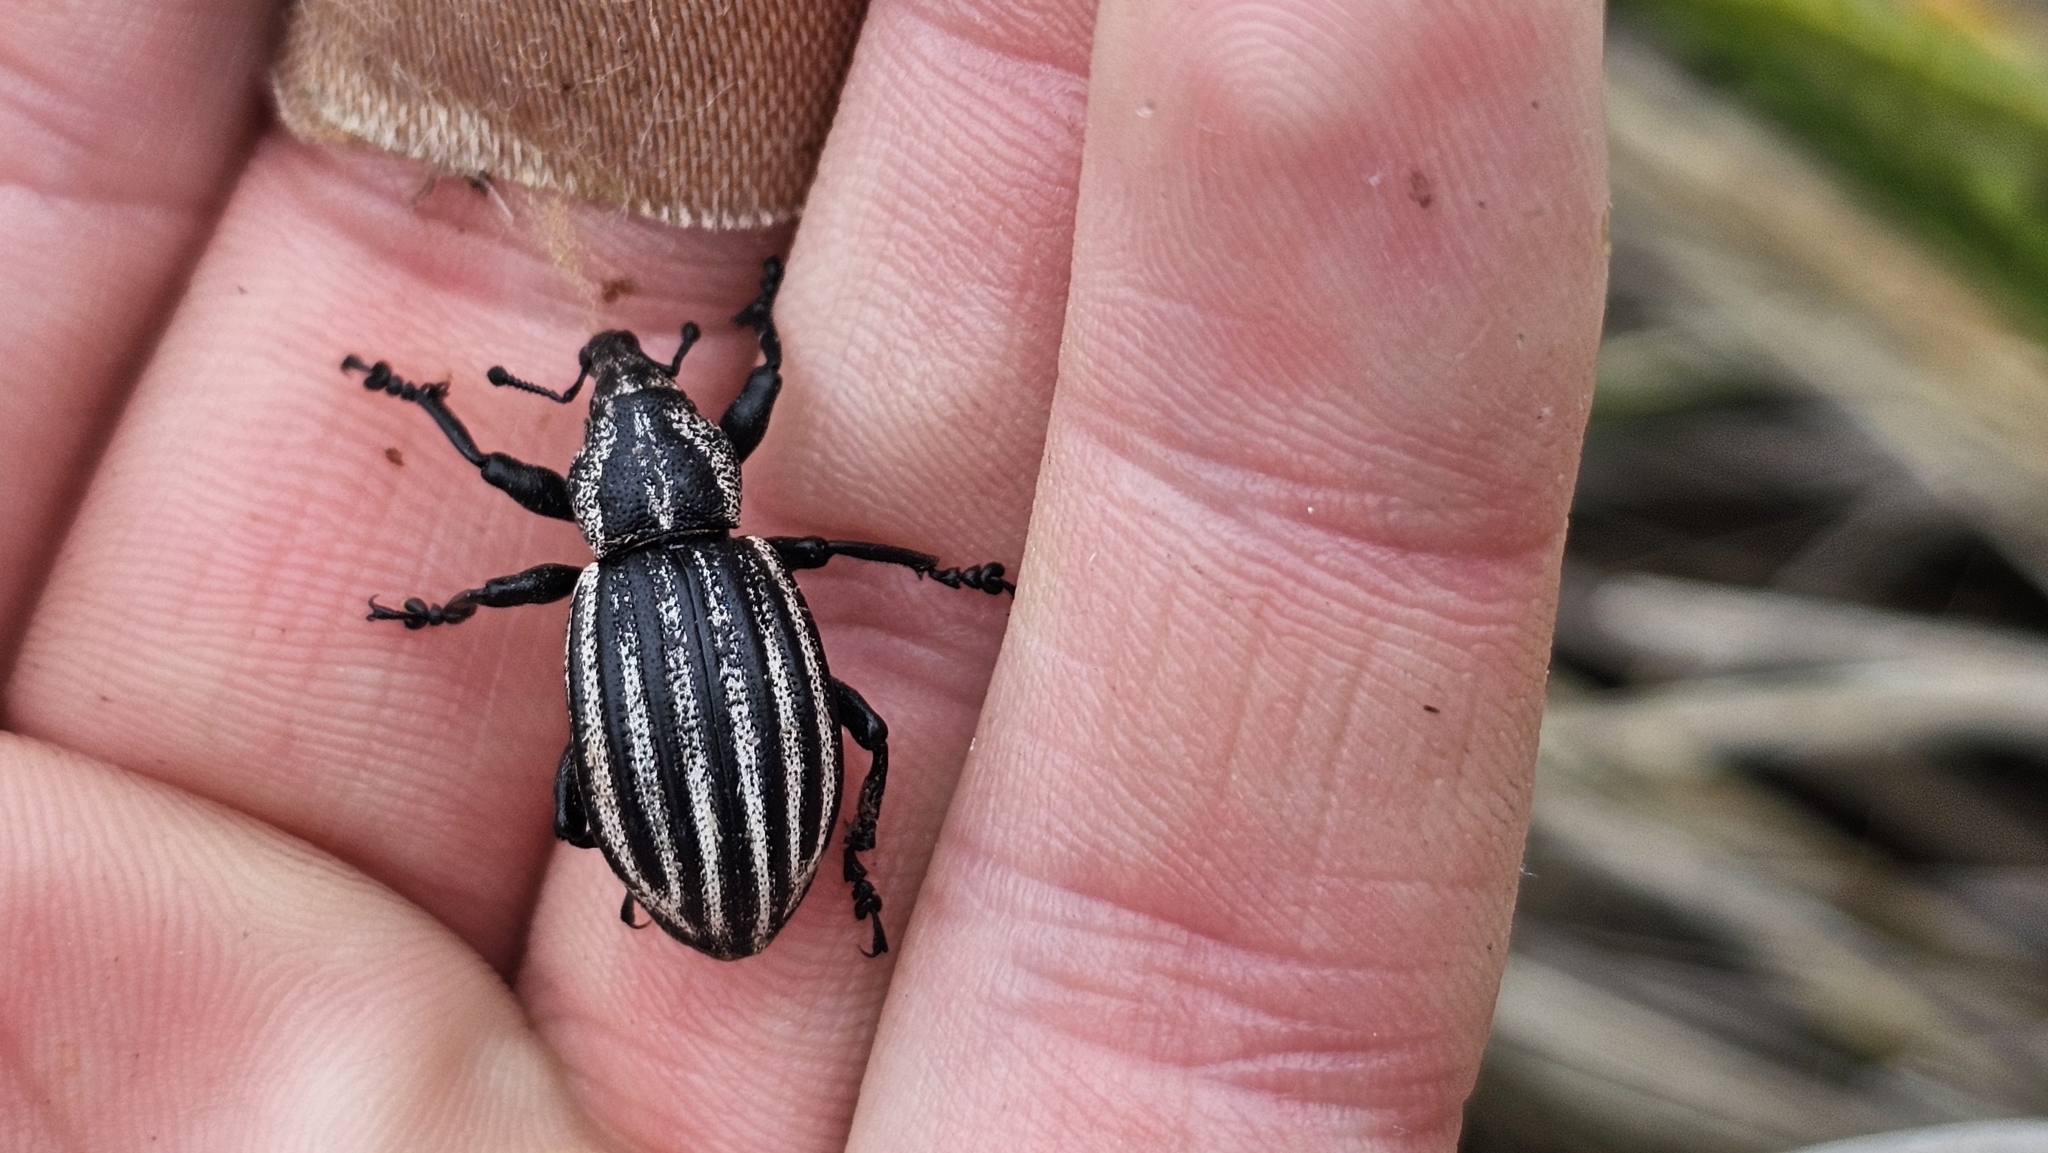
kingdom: Animalia
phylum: Arthropoda
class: Insecta
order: Coleoptera
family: Curculionidae
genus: Lyperobius
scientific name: Lyperobius fallax
